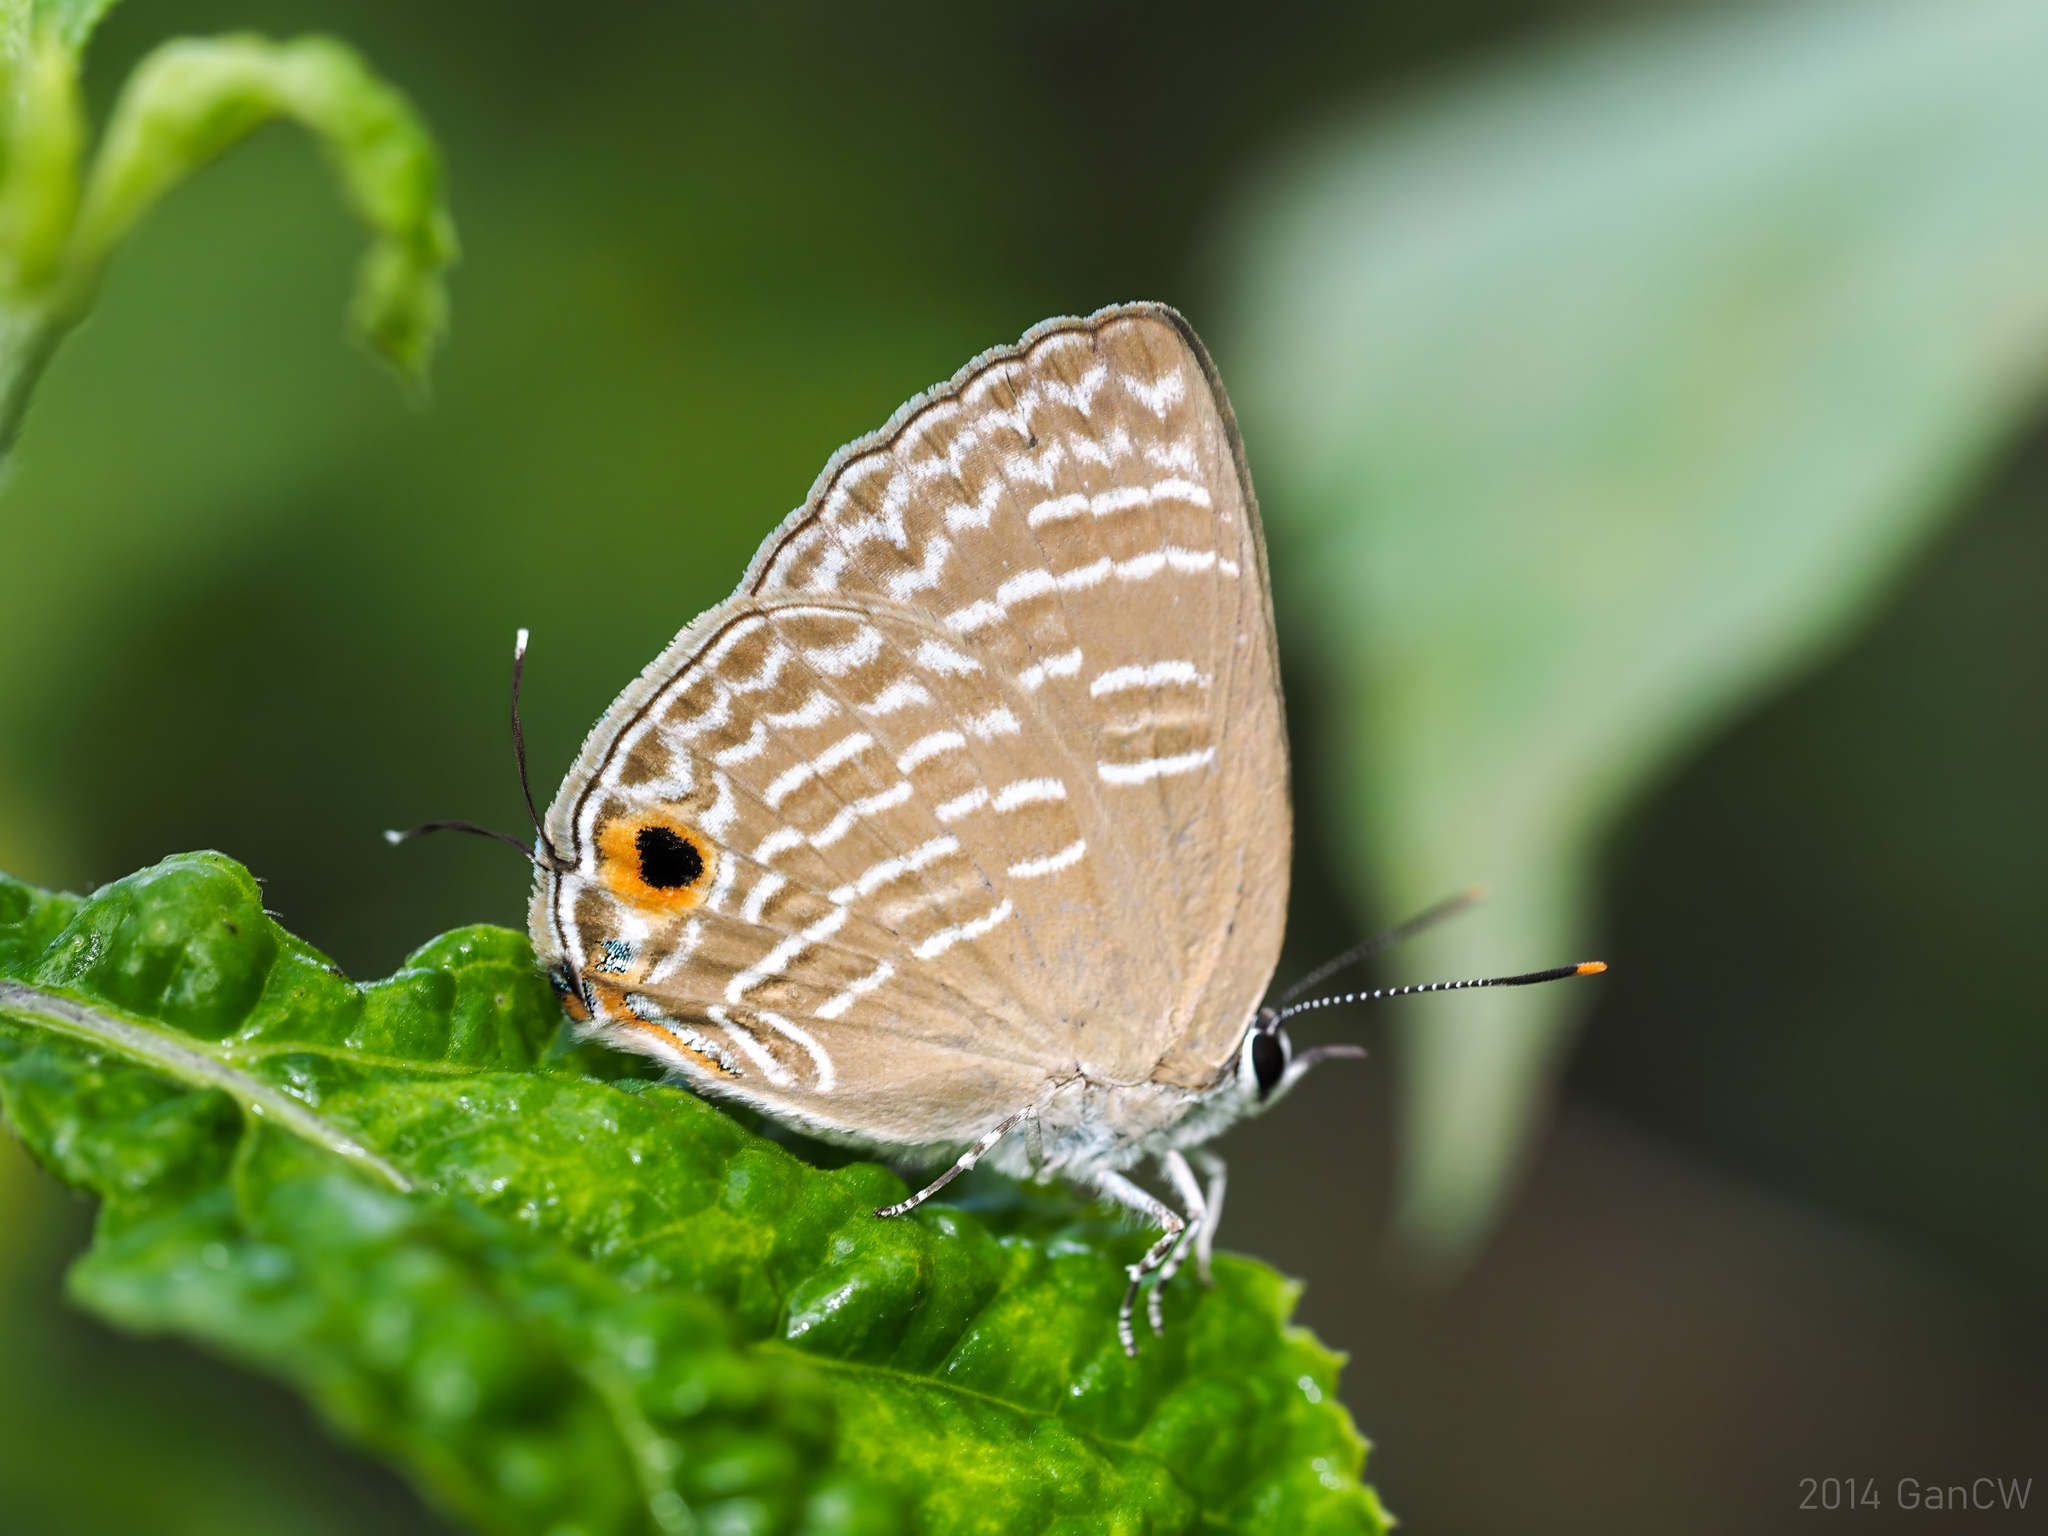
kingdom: Animalia
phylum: Arthropoda
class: Insecta
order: Lepidoptera
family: Lycaenidae
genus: Deudorix
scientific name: Deudorix
